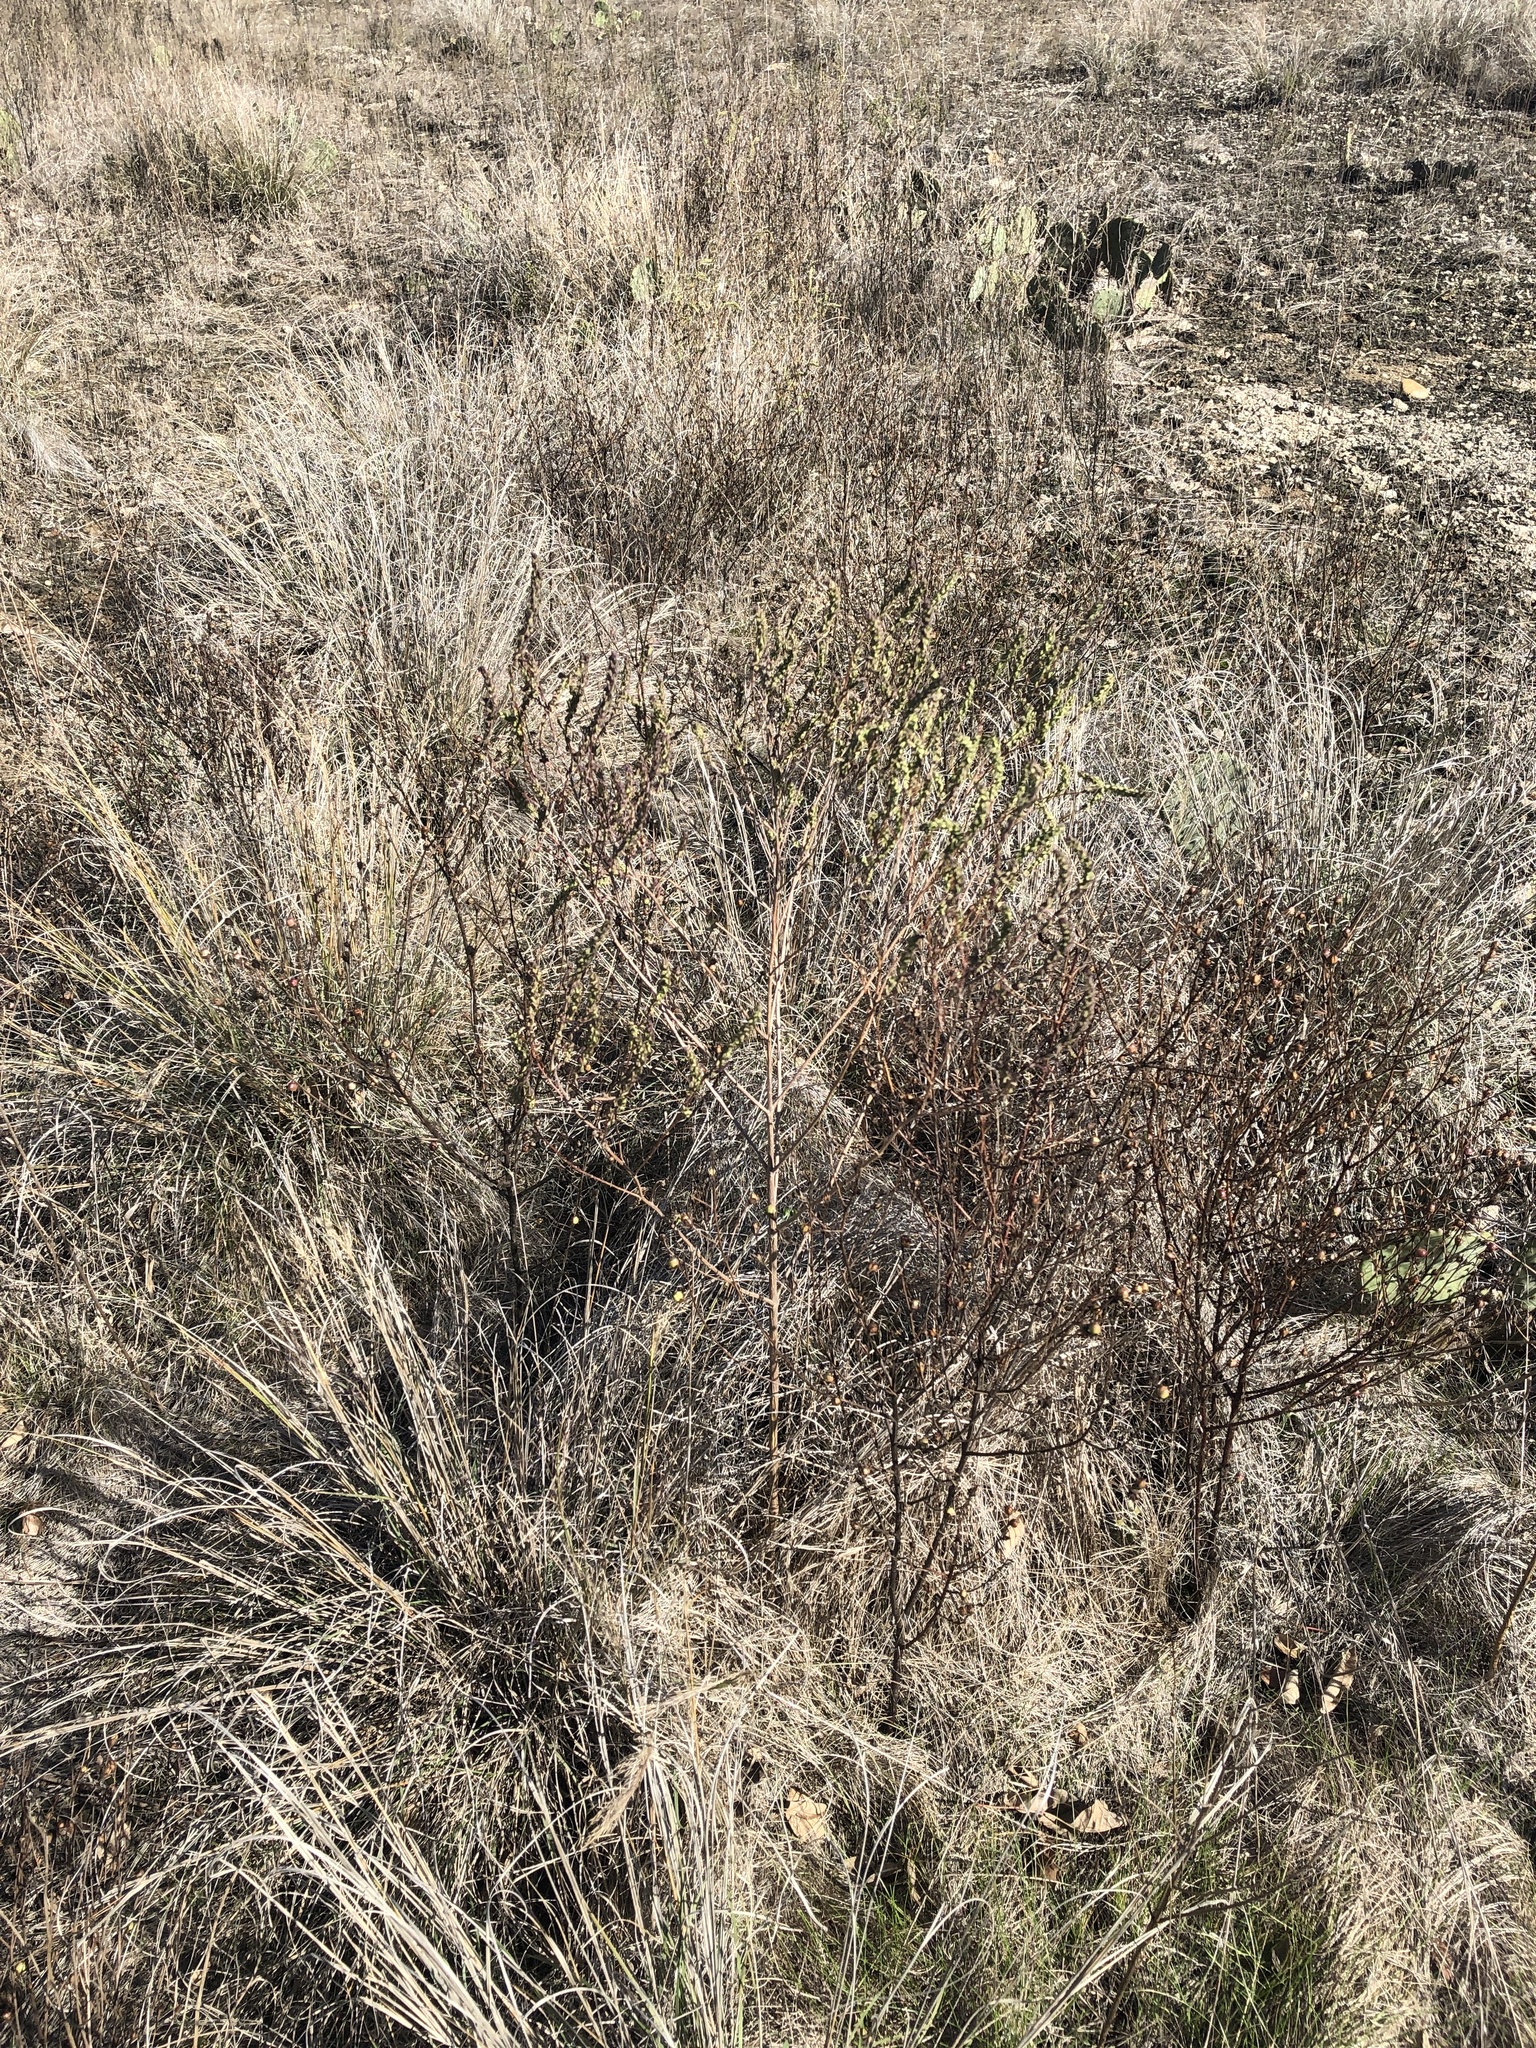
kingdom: Plantae
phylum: Tracheophyta
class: Magnoliopsida
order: Asterales
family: Asteraceae
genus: Iva
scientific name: Iva asperifolia
